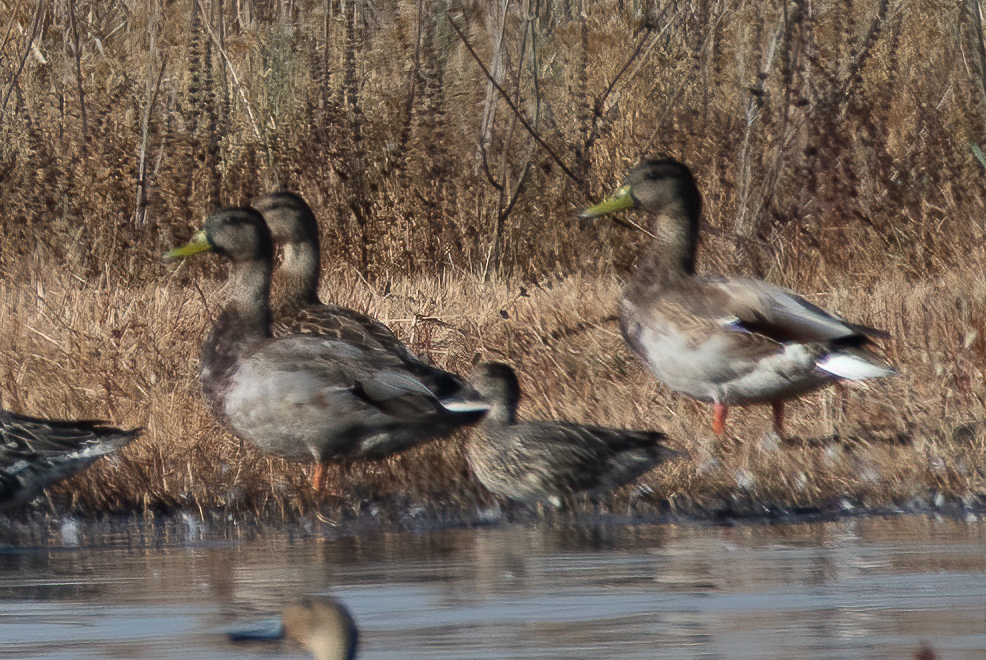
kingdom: Animalia
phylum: Chordata
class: Aves
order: Anseriformes
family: Anatidae
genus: Anas
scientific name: Anas platyrhynchos
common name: Mallard
